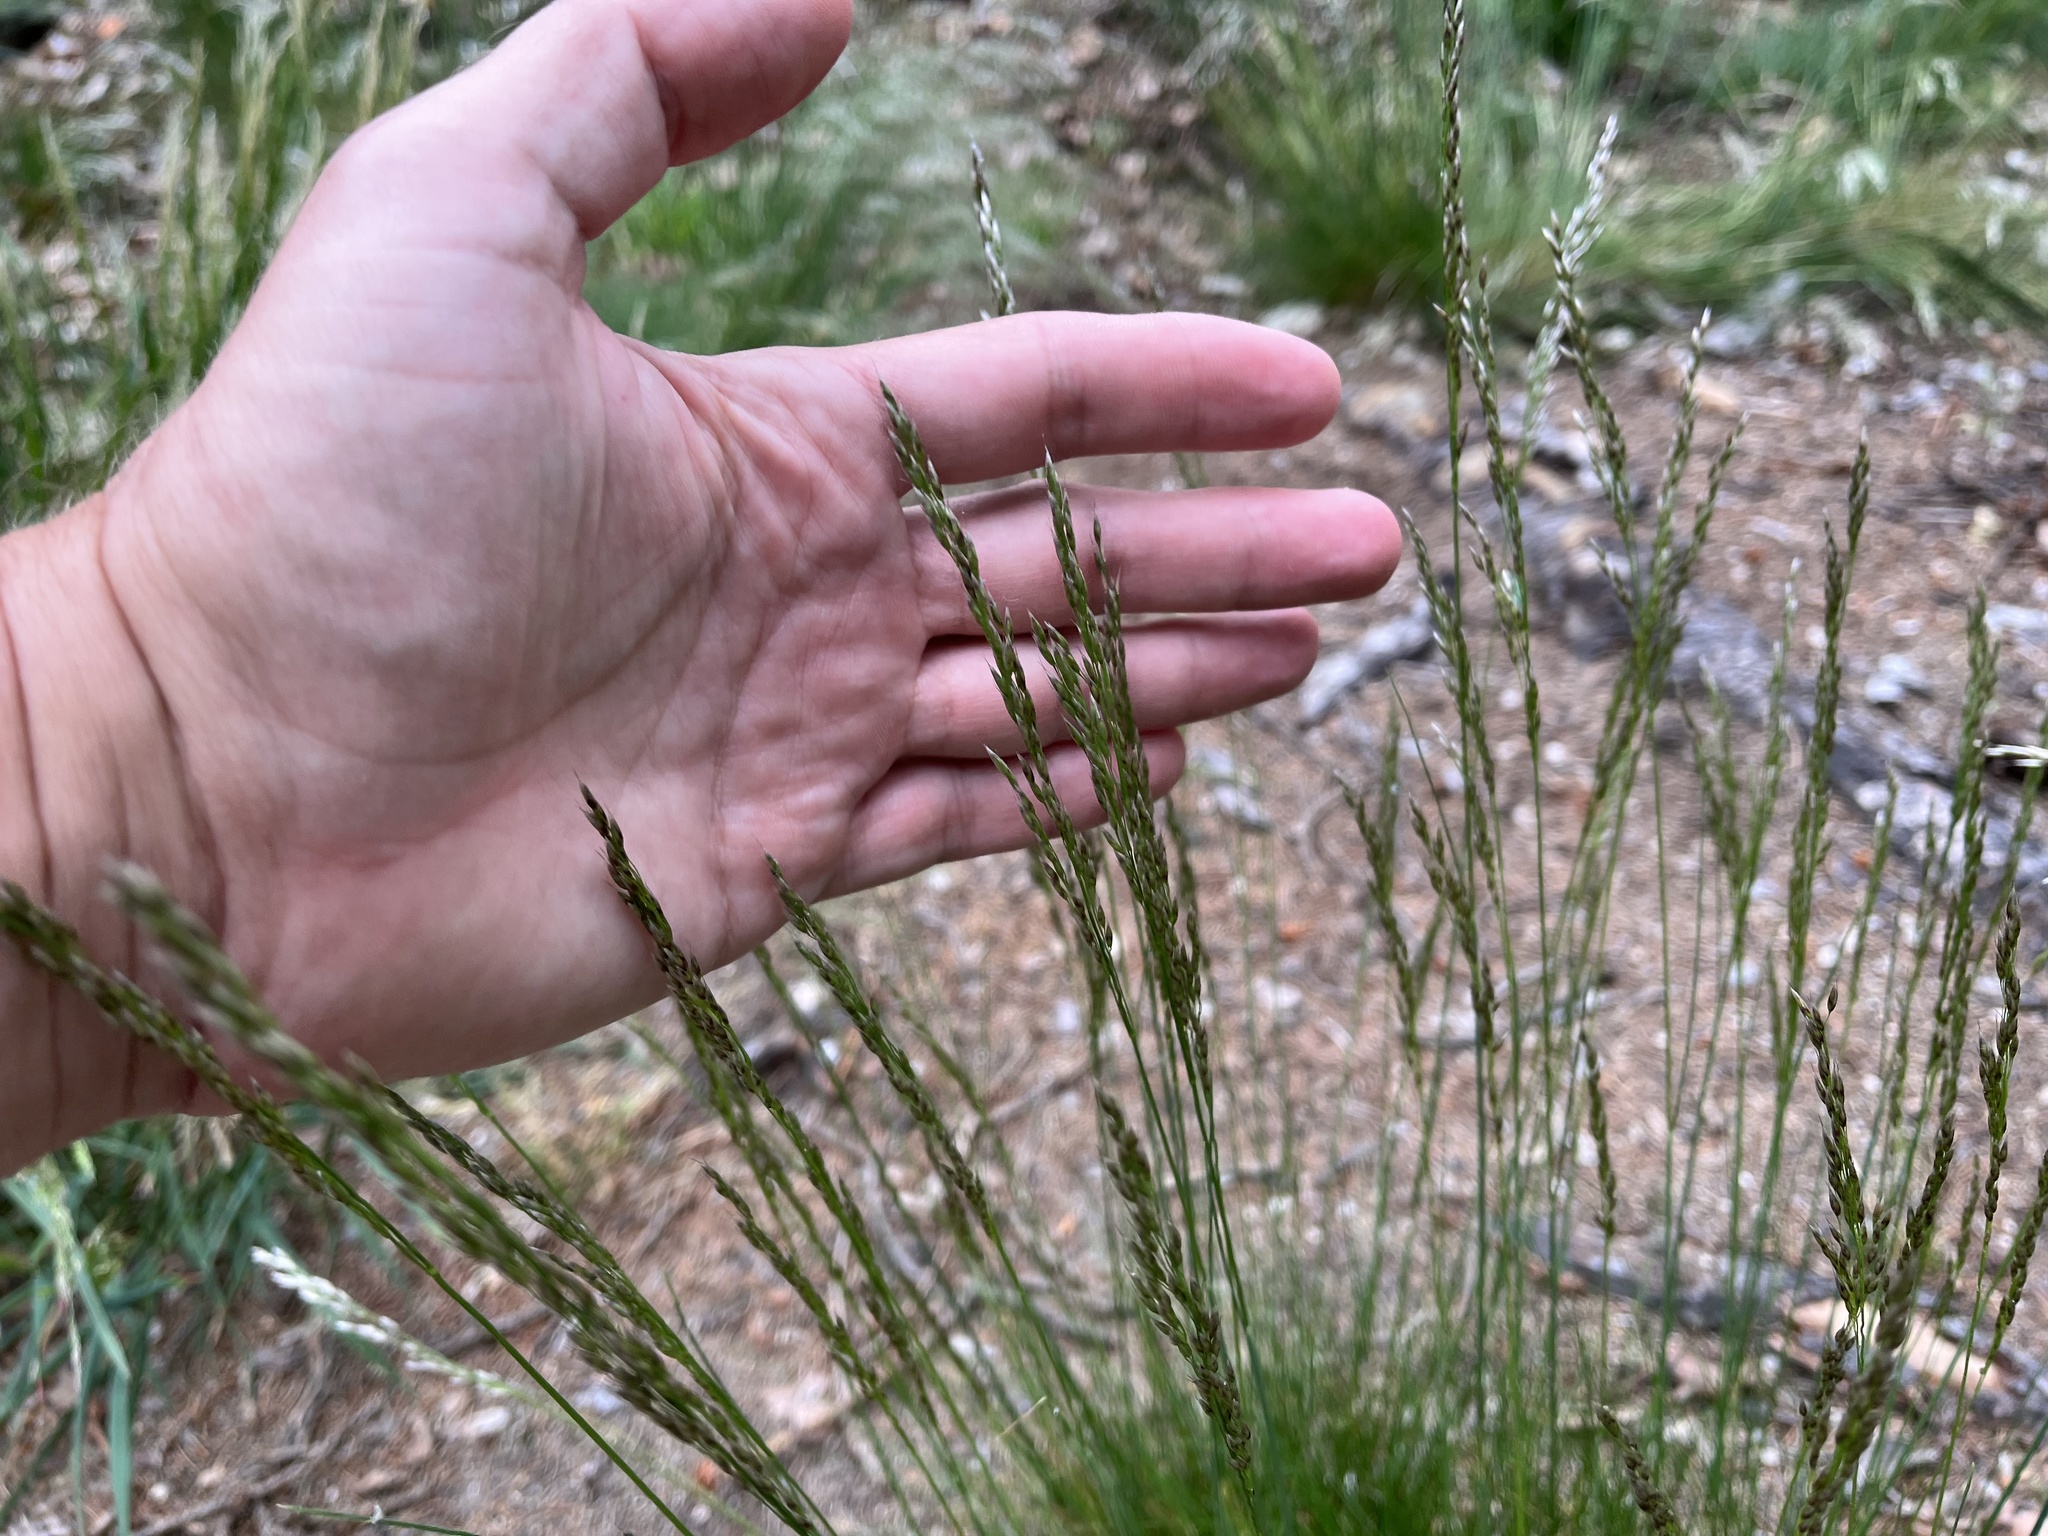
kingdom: Plantae
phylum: Tracheophyta
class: Liliopsida
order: Poales
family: Poaceae
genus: Avenella
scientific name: Avenella flexuosa
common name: Wavy hairgrass
